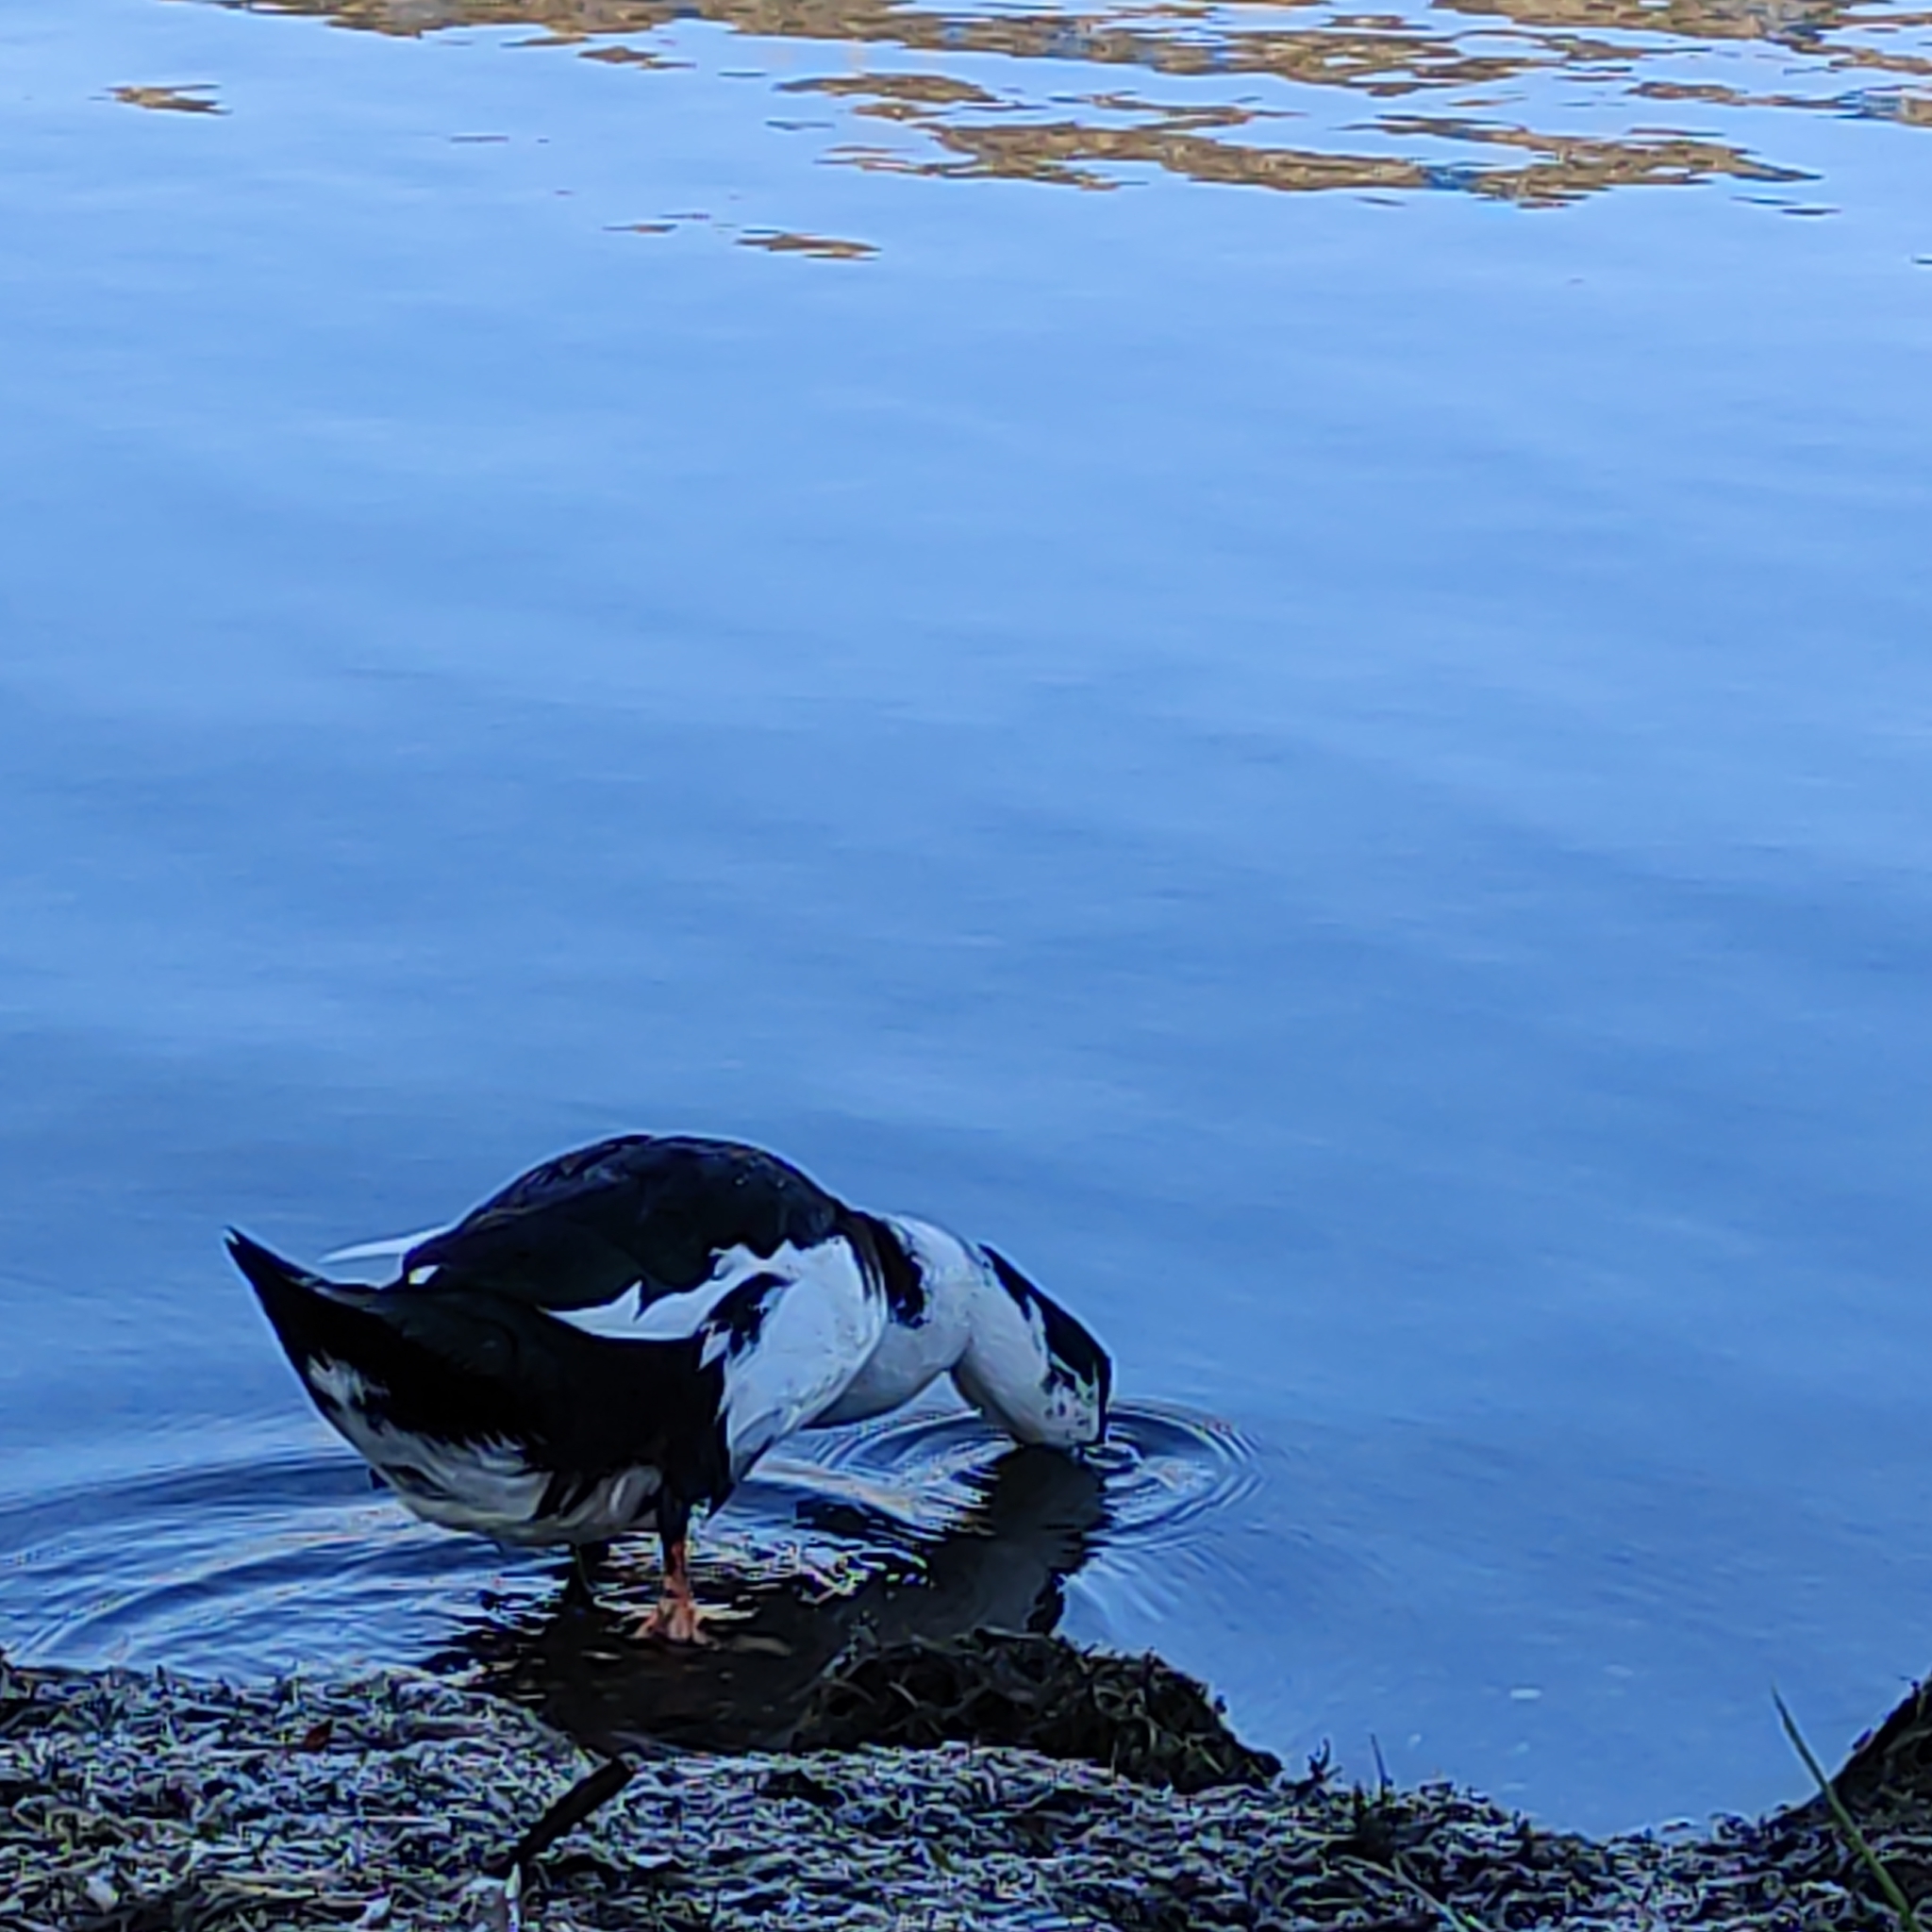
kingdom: Animalia
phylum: Chordata
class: Aves
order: Anseriformes
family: Anatidae
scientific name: Anatidae
